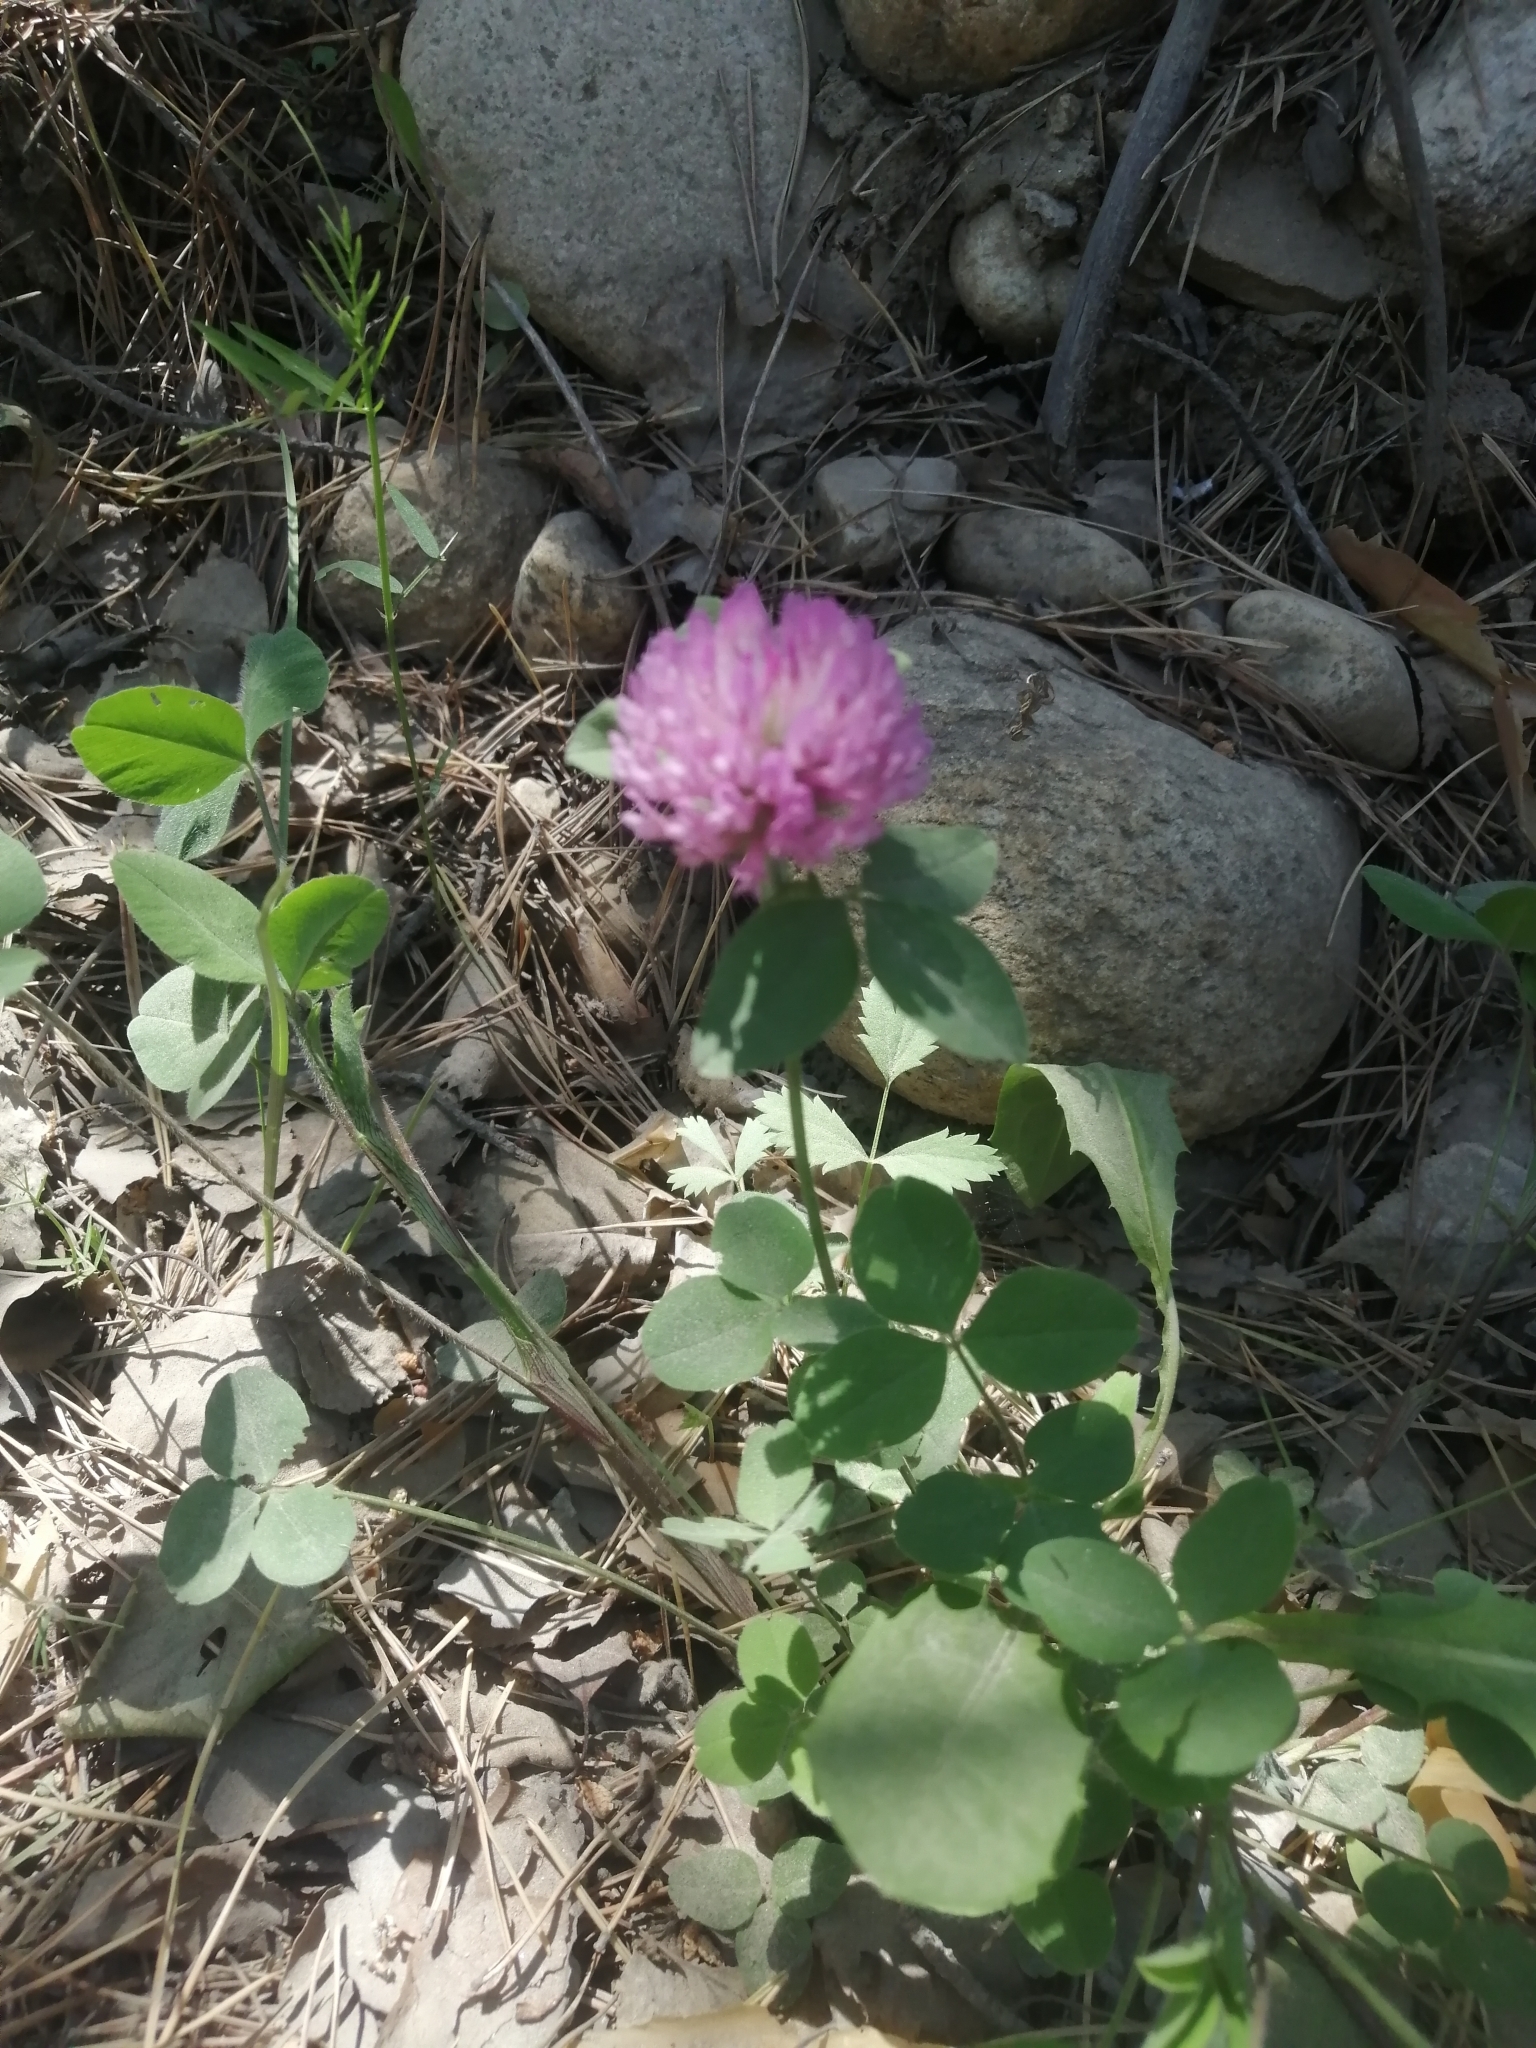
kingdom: Plantae
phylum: Tracheophyta
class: Magnoliopsida
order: Fabales
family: Fabaceae
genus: Trifolium
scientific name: Trifolium pratense
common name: Red clover
